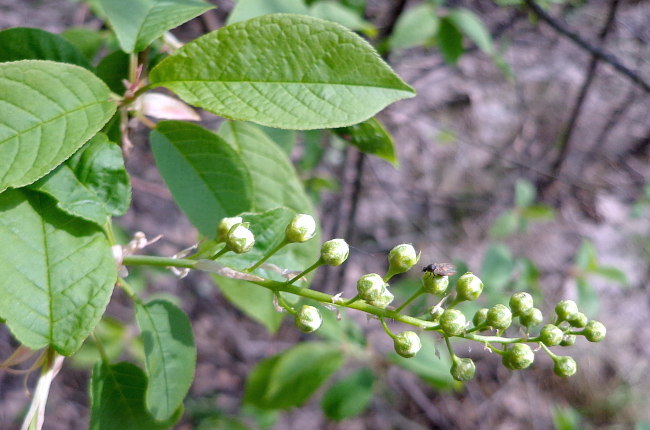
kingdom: Plantae
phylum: Tracheophyta
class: Magnoliopsida
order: Rosales
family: Rosaceae
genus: Prunus
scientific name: Prunus padus
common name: Bird cherry
